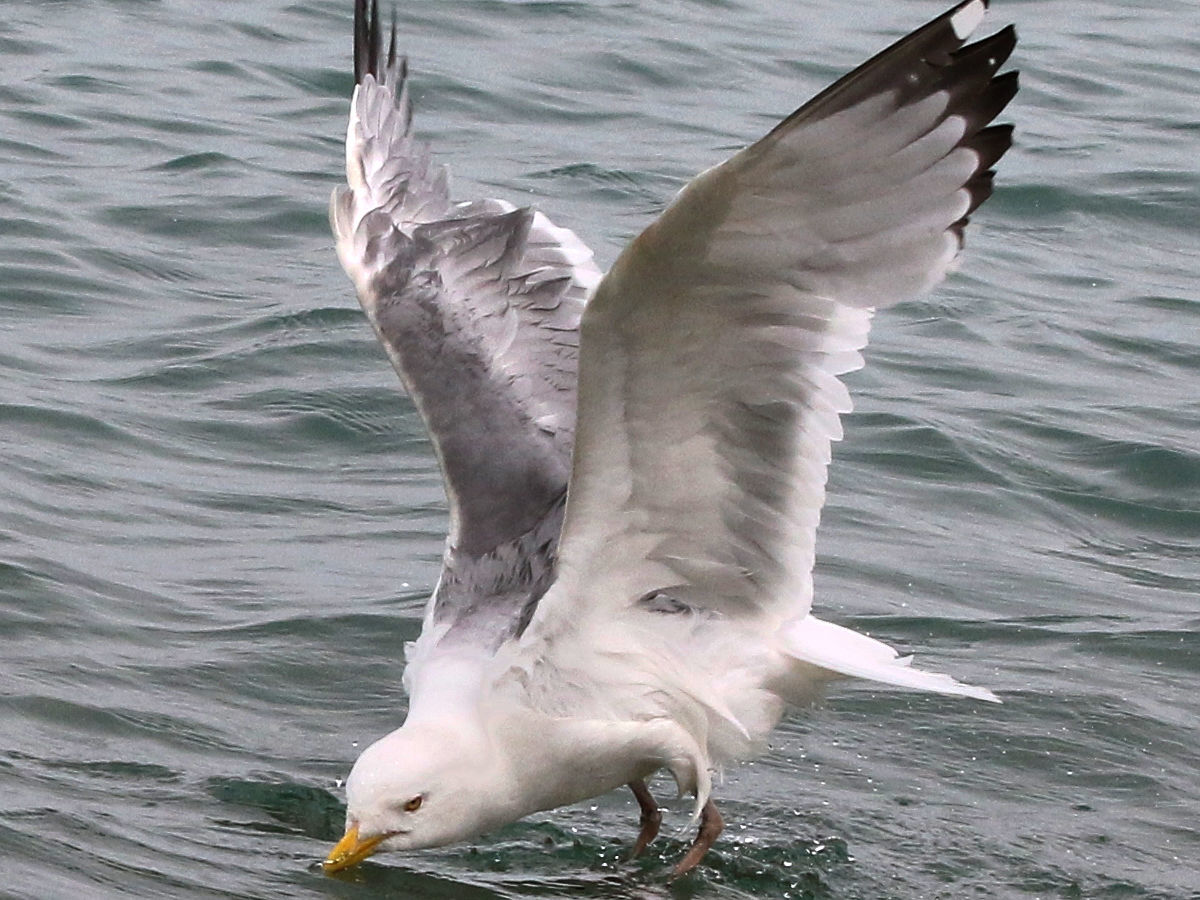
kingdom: Animalia
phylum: Chordata
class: Aves
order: Charadriiformes
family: Laridae
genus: Larus
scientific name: Larus argentatus
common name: Herring gull
